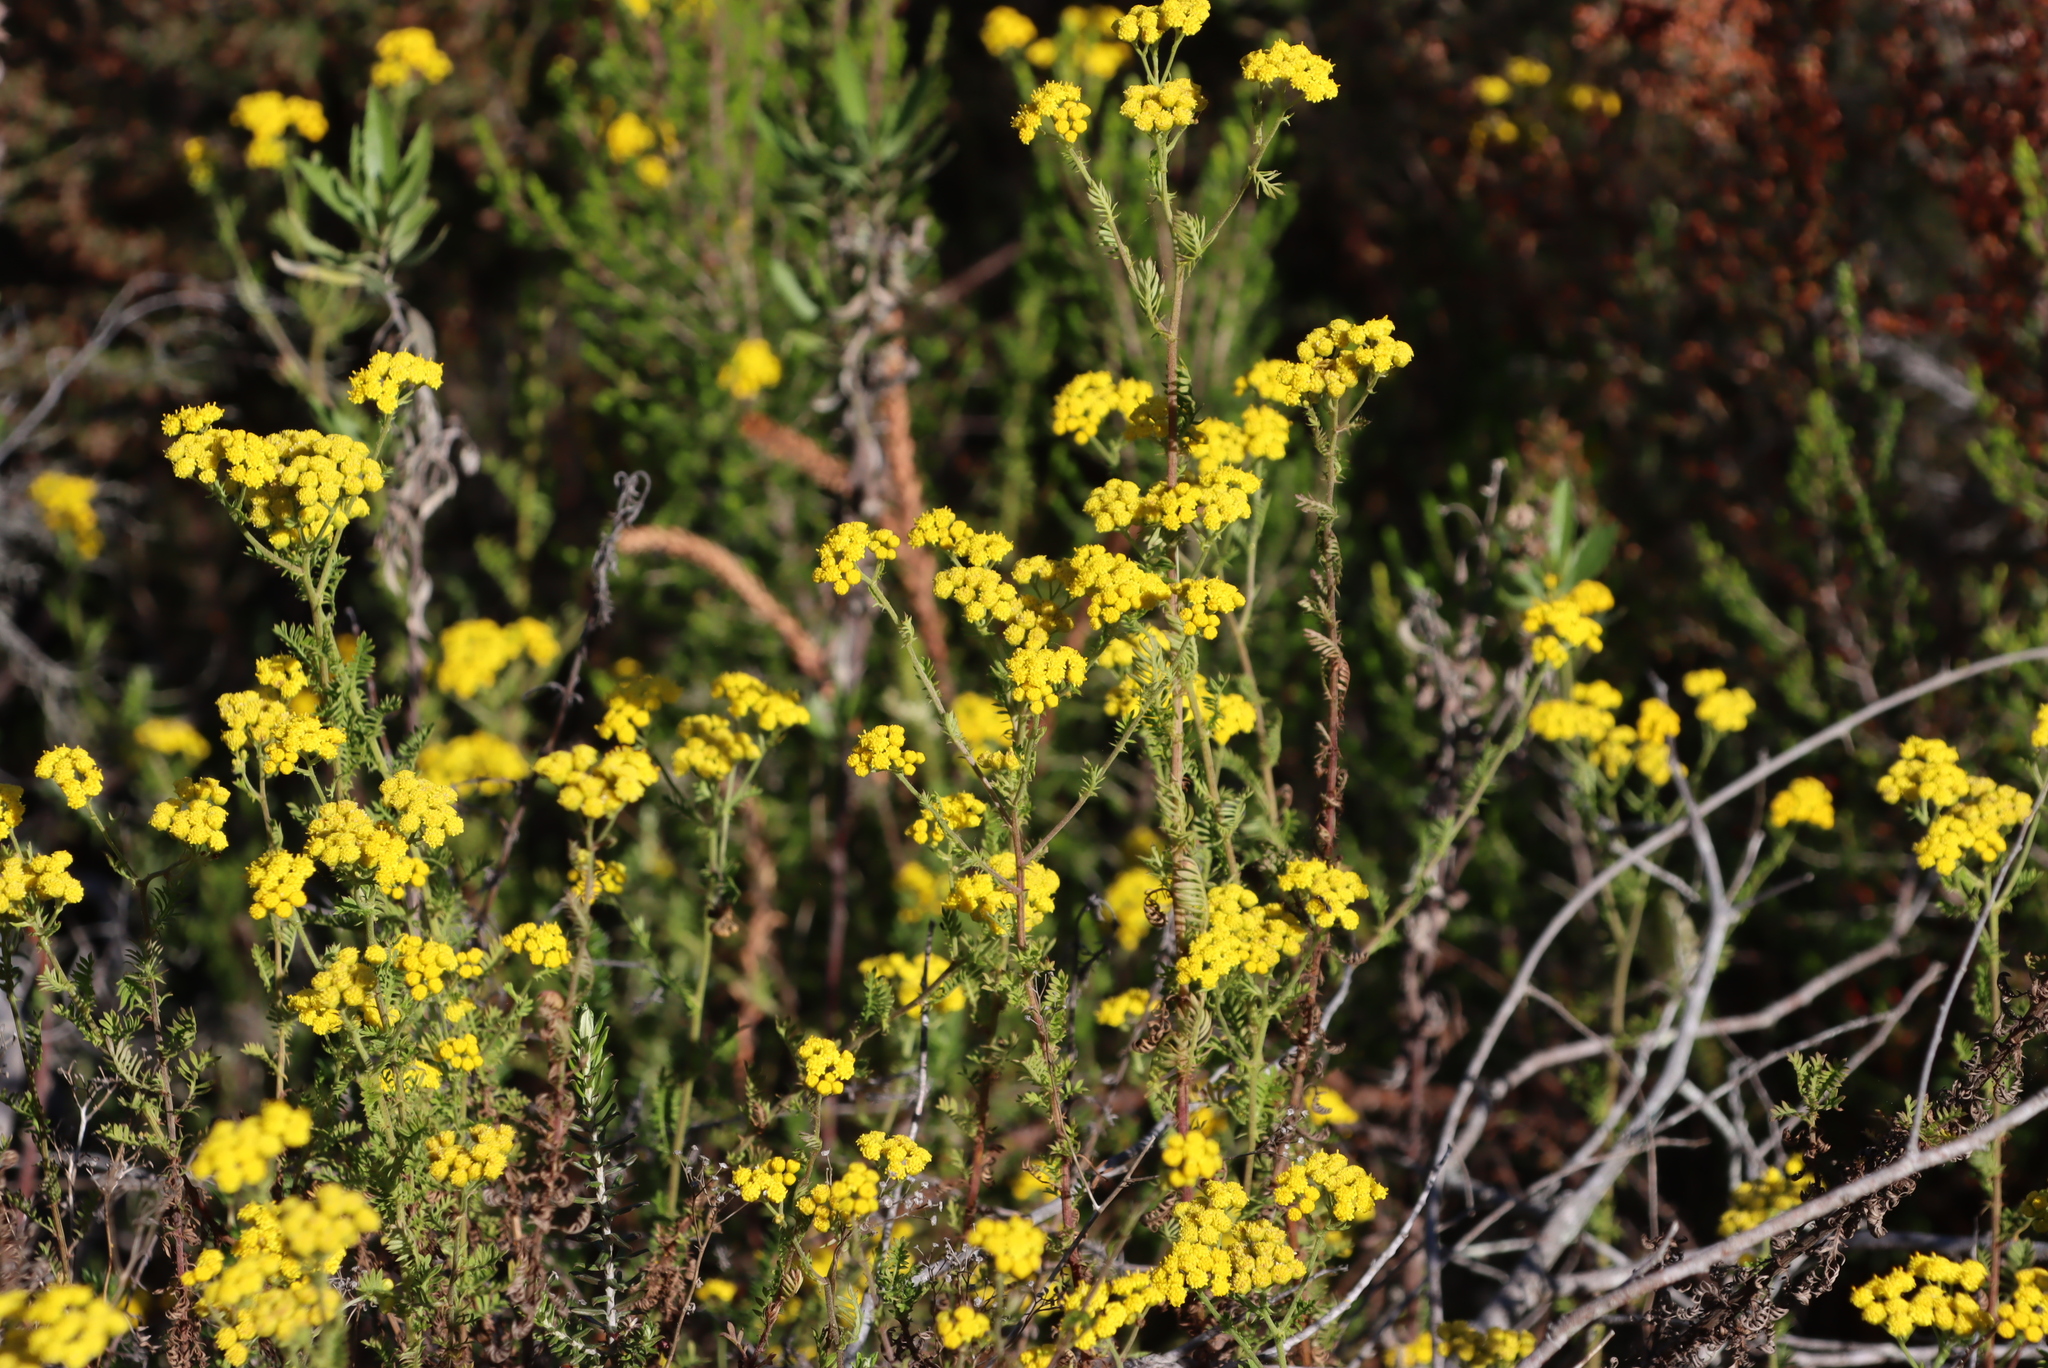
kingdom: Plantae
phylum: Tracheophyta
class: Magnoliopsida
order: Asterales
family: Asteraceae
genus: Hippia
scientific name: Hippia frutescens
